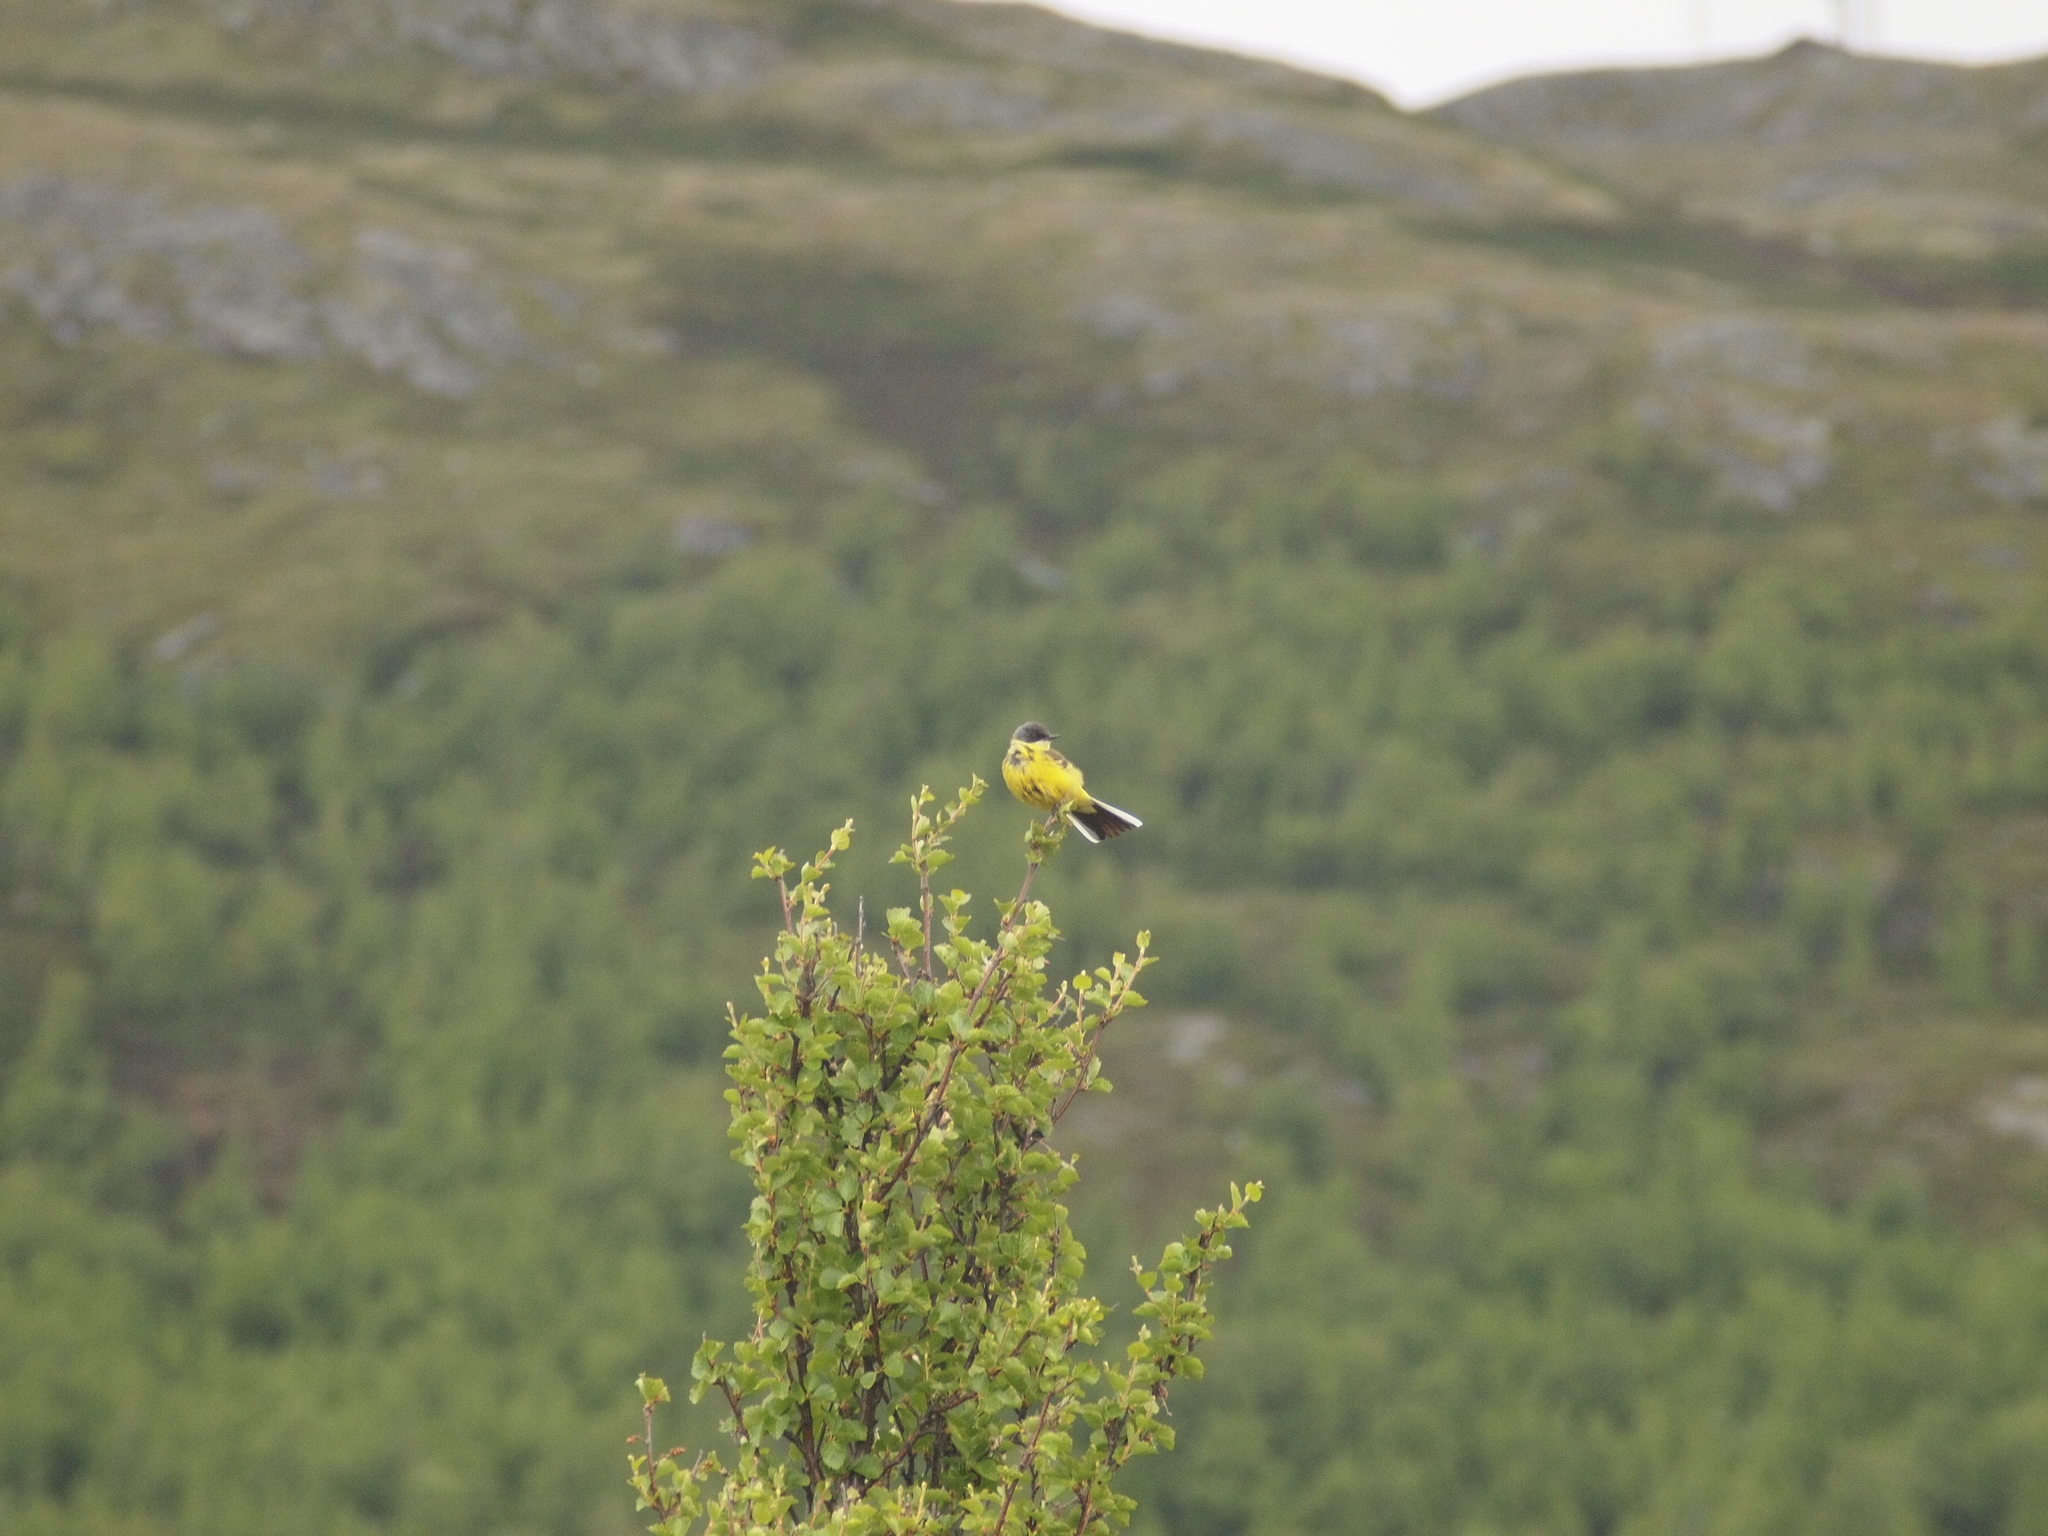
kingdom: Animalia
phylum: Chordata
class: Aves
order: Passeriformes
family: Motacillidae
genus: Motacilla
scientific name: Motacilla flava
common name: Western yellow wagtail
